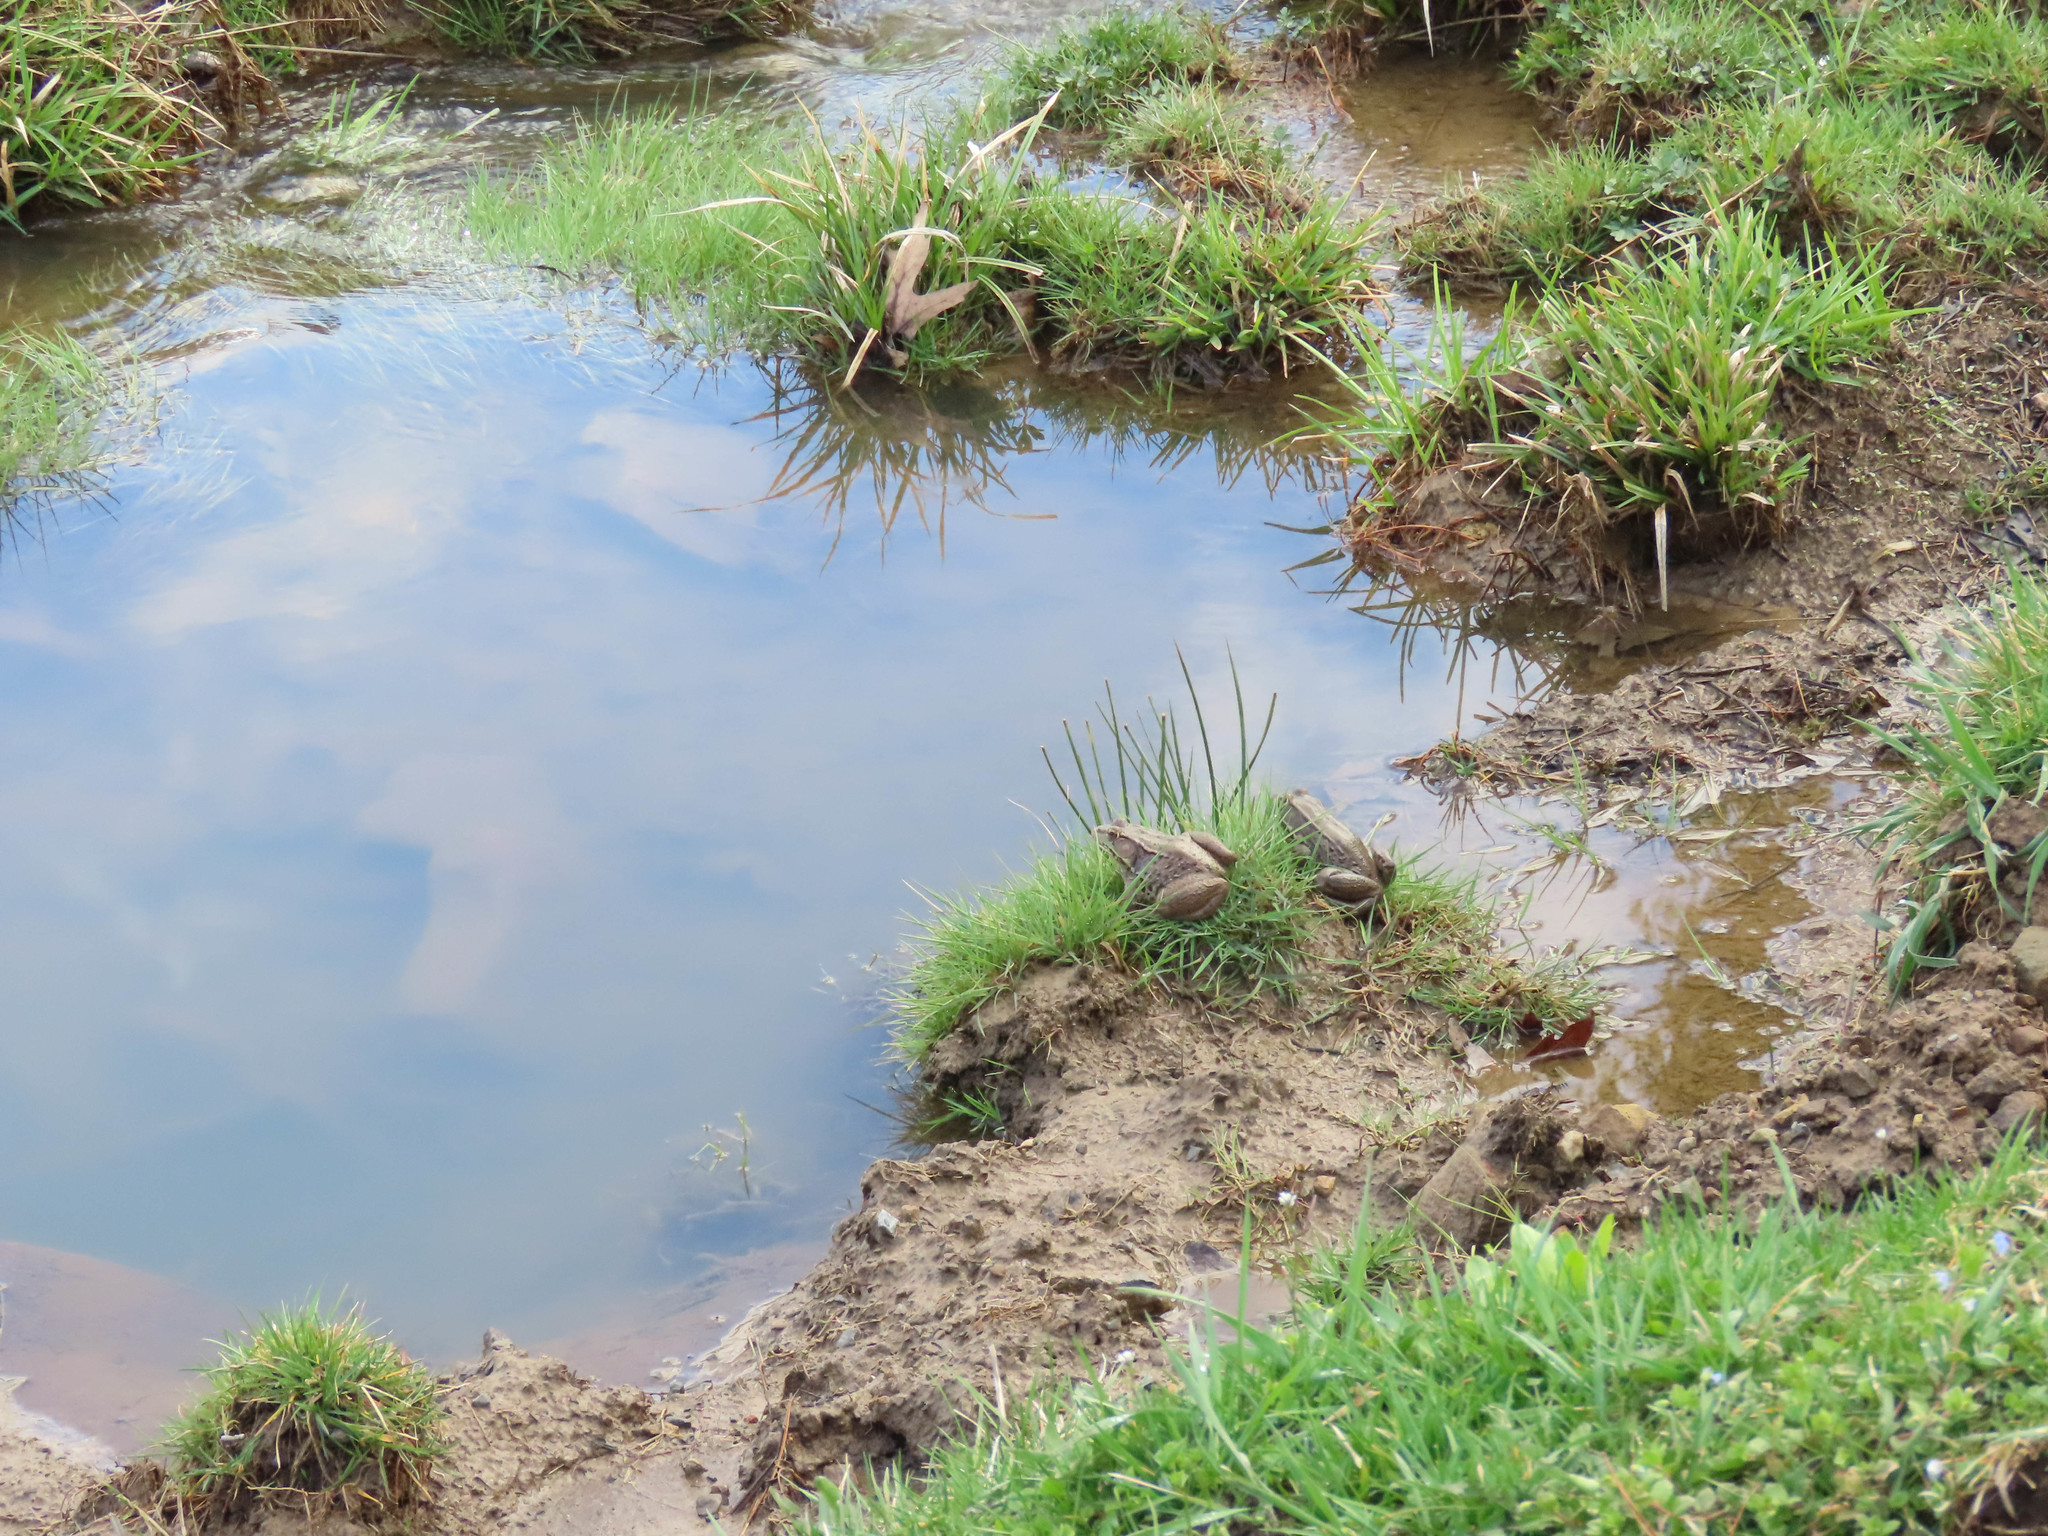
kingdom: Animalia
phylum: Chordata
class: Amphibia
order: Anura
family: Ranidae
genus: Lithobates
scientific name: Lithobates clamitans
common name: Green frog
